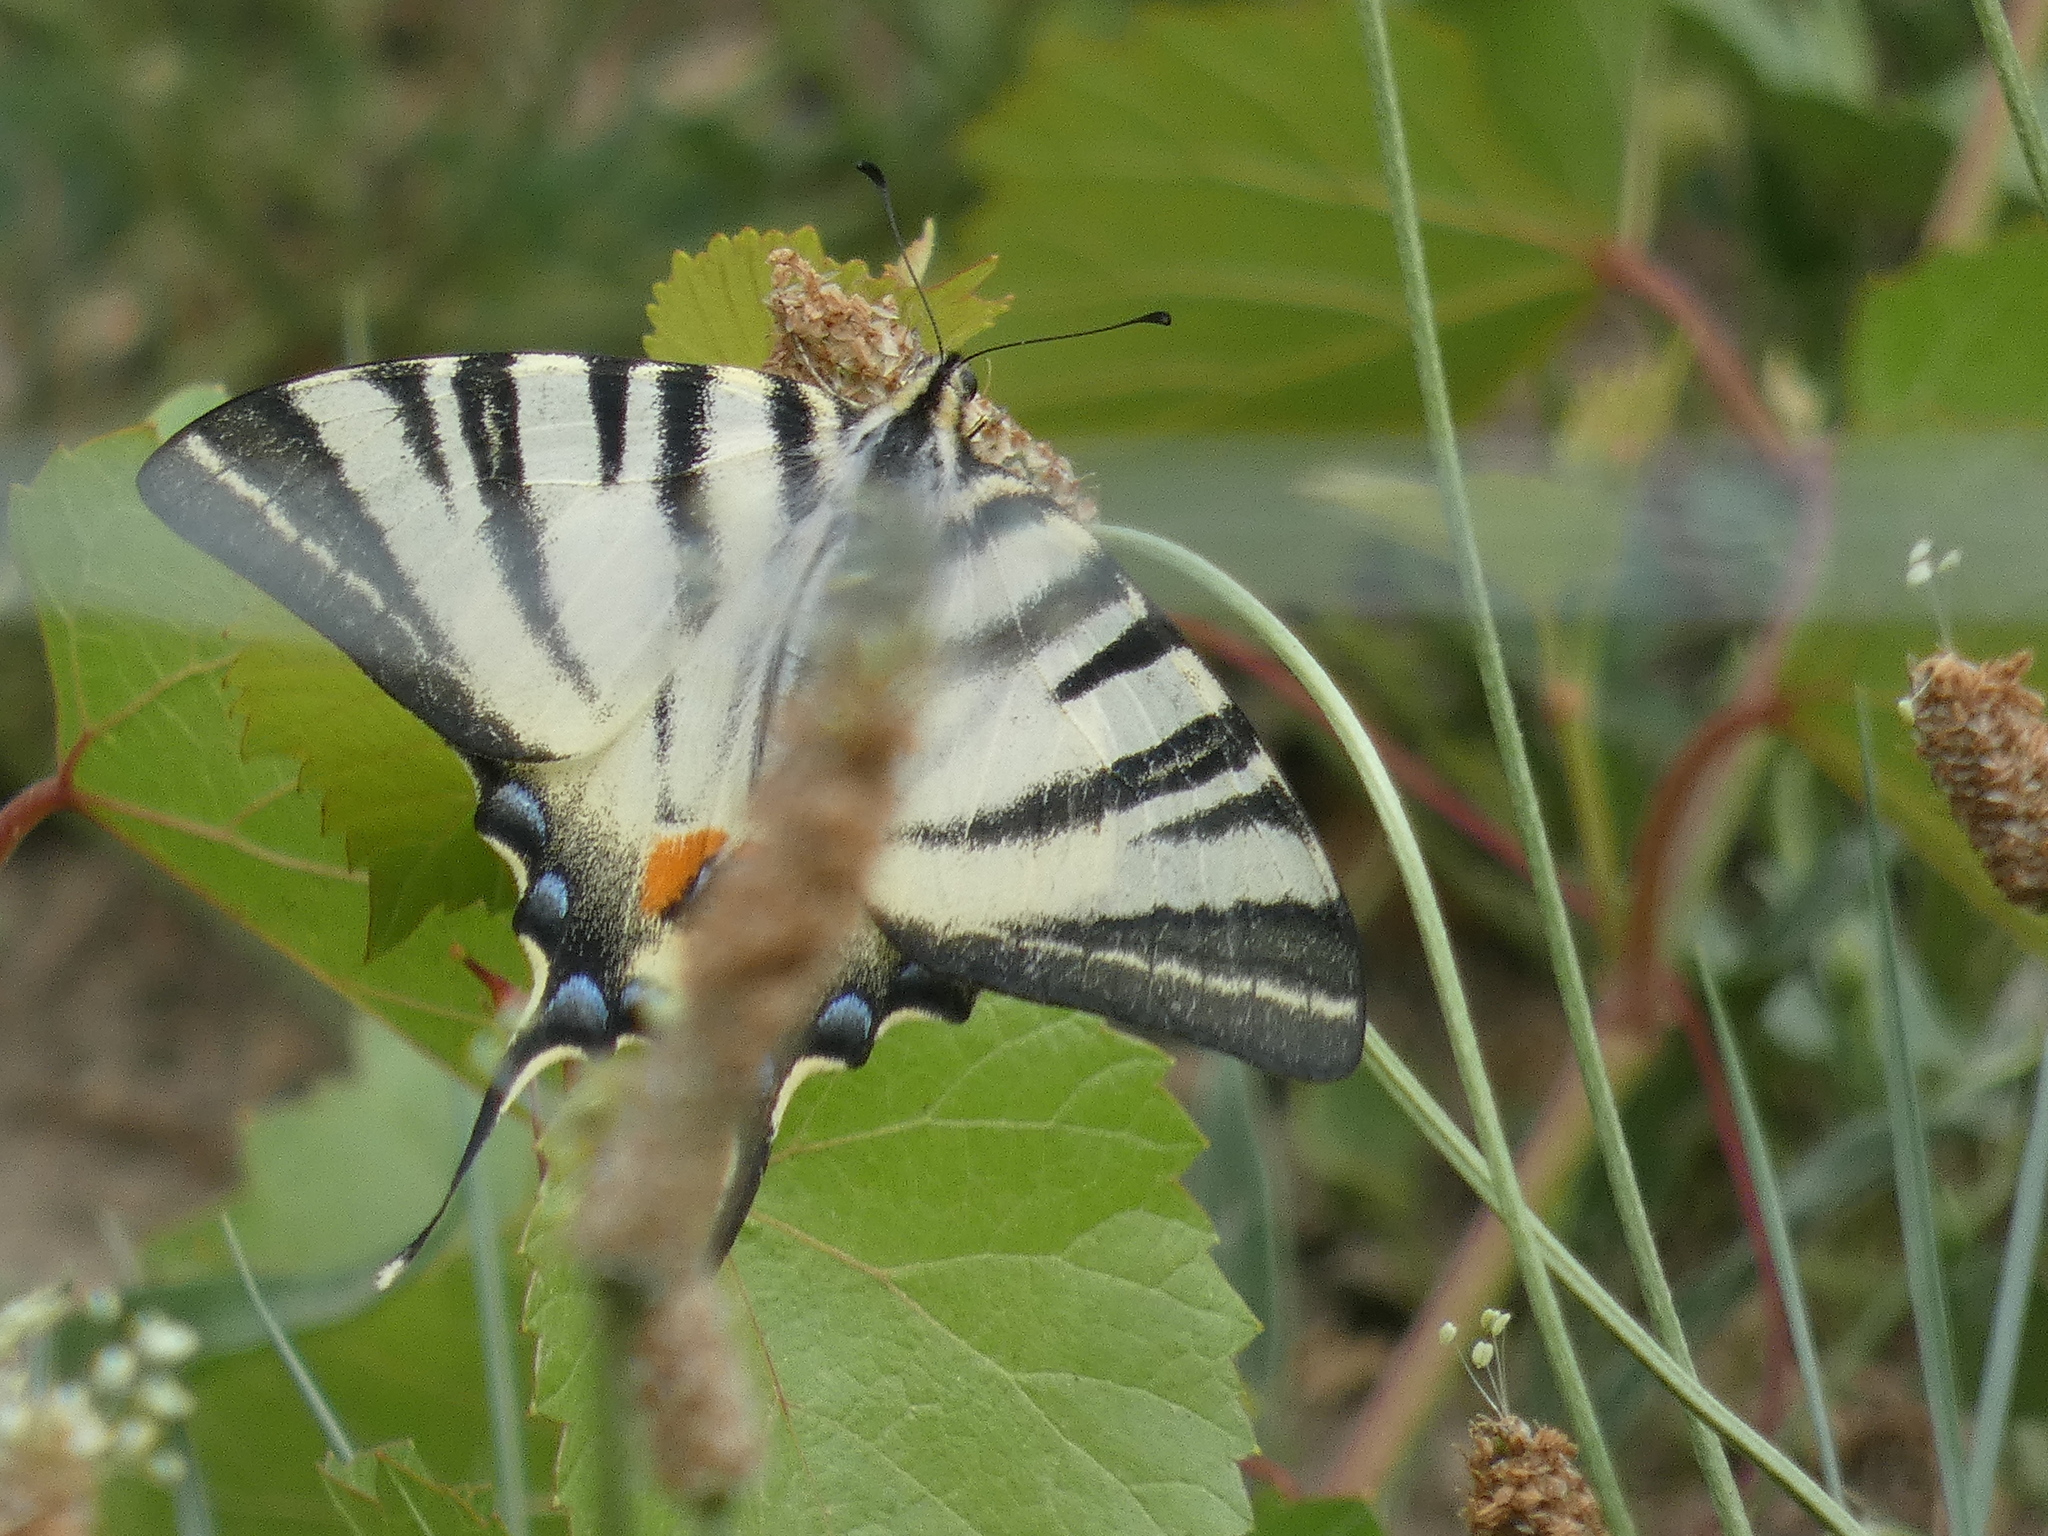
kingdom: Animalia
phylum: Arthropoda
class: Insecta
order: Lepidoptera
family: Papilionidae
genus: Iphiclides
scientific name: Iphiclides podalirius
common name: Scarce swallowtail
